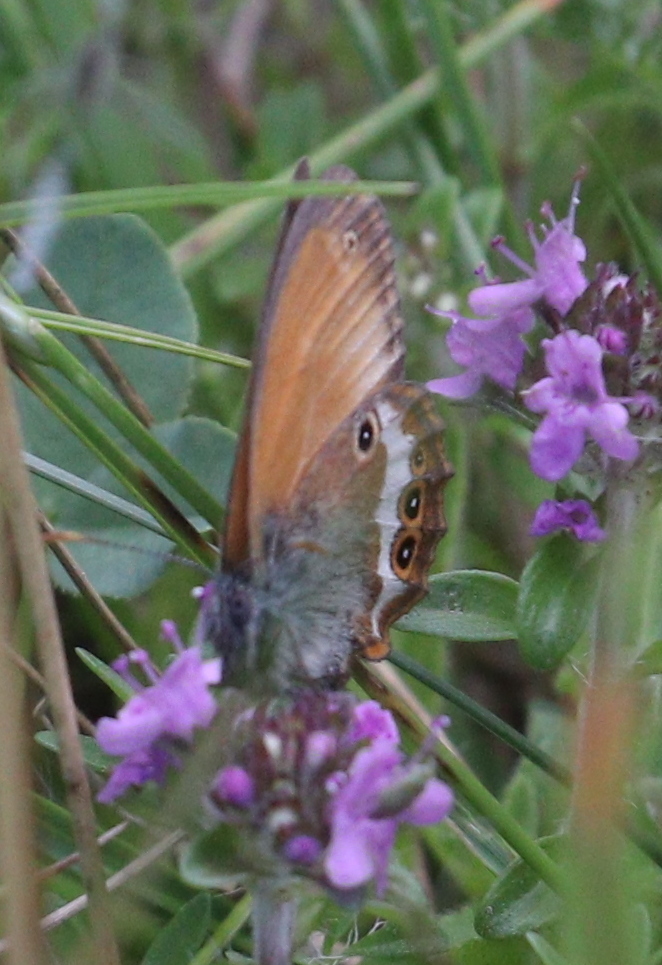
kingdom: Animalia
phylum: Arthropoda
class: Insecta
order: Lepidoptera
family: Nymphalidae
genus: Coenonympha
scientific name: Coenonympha arcania
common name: Pearly heath
